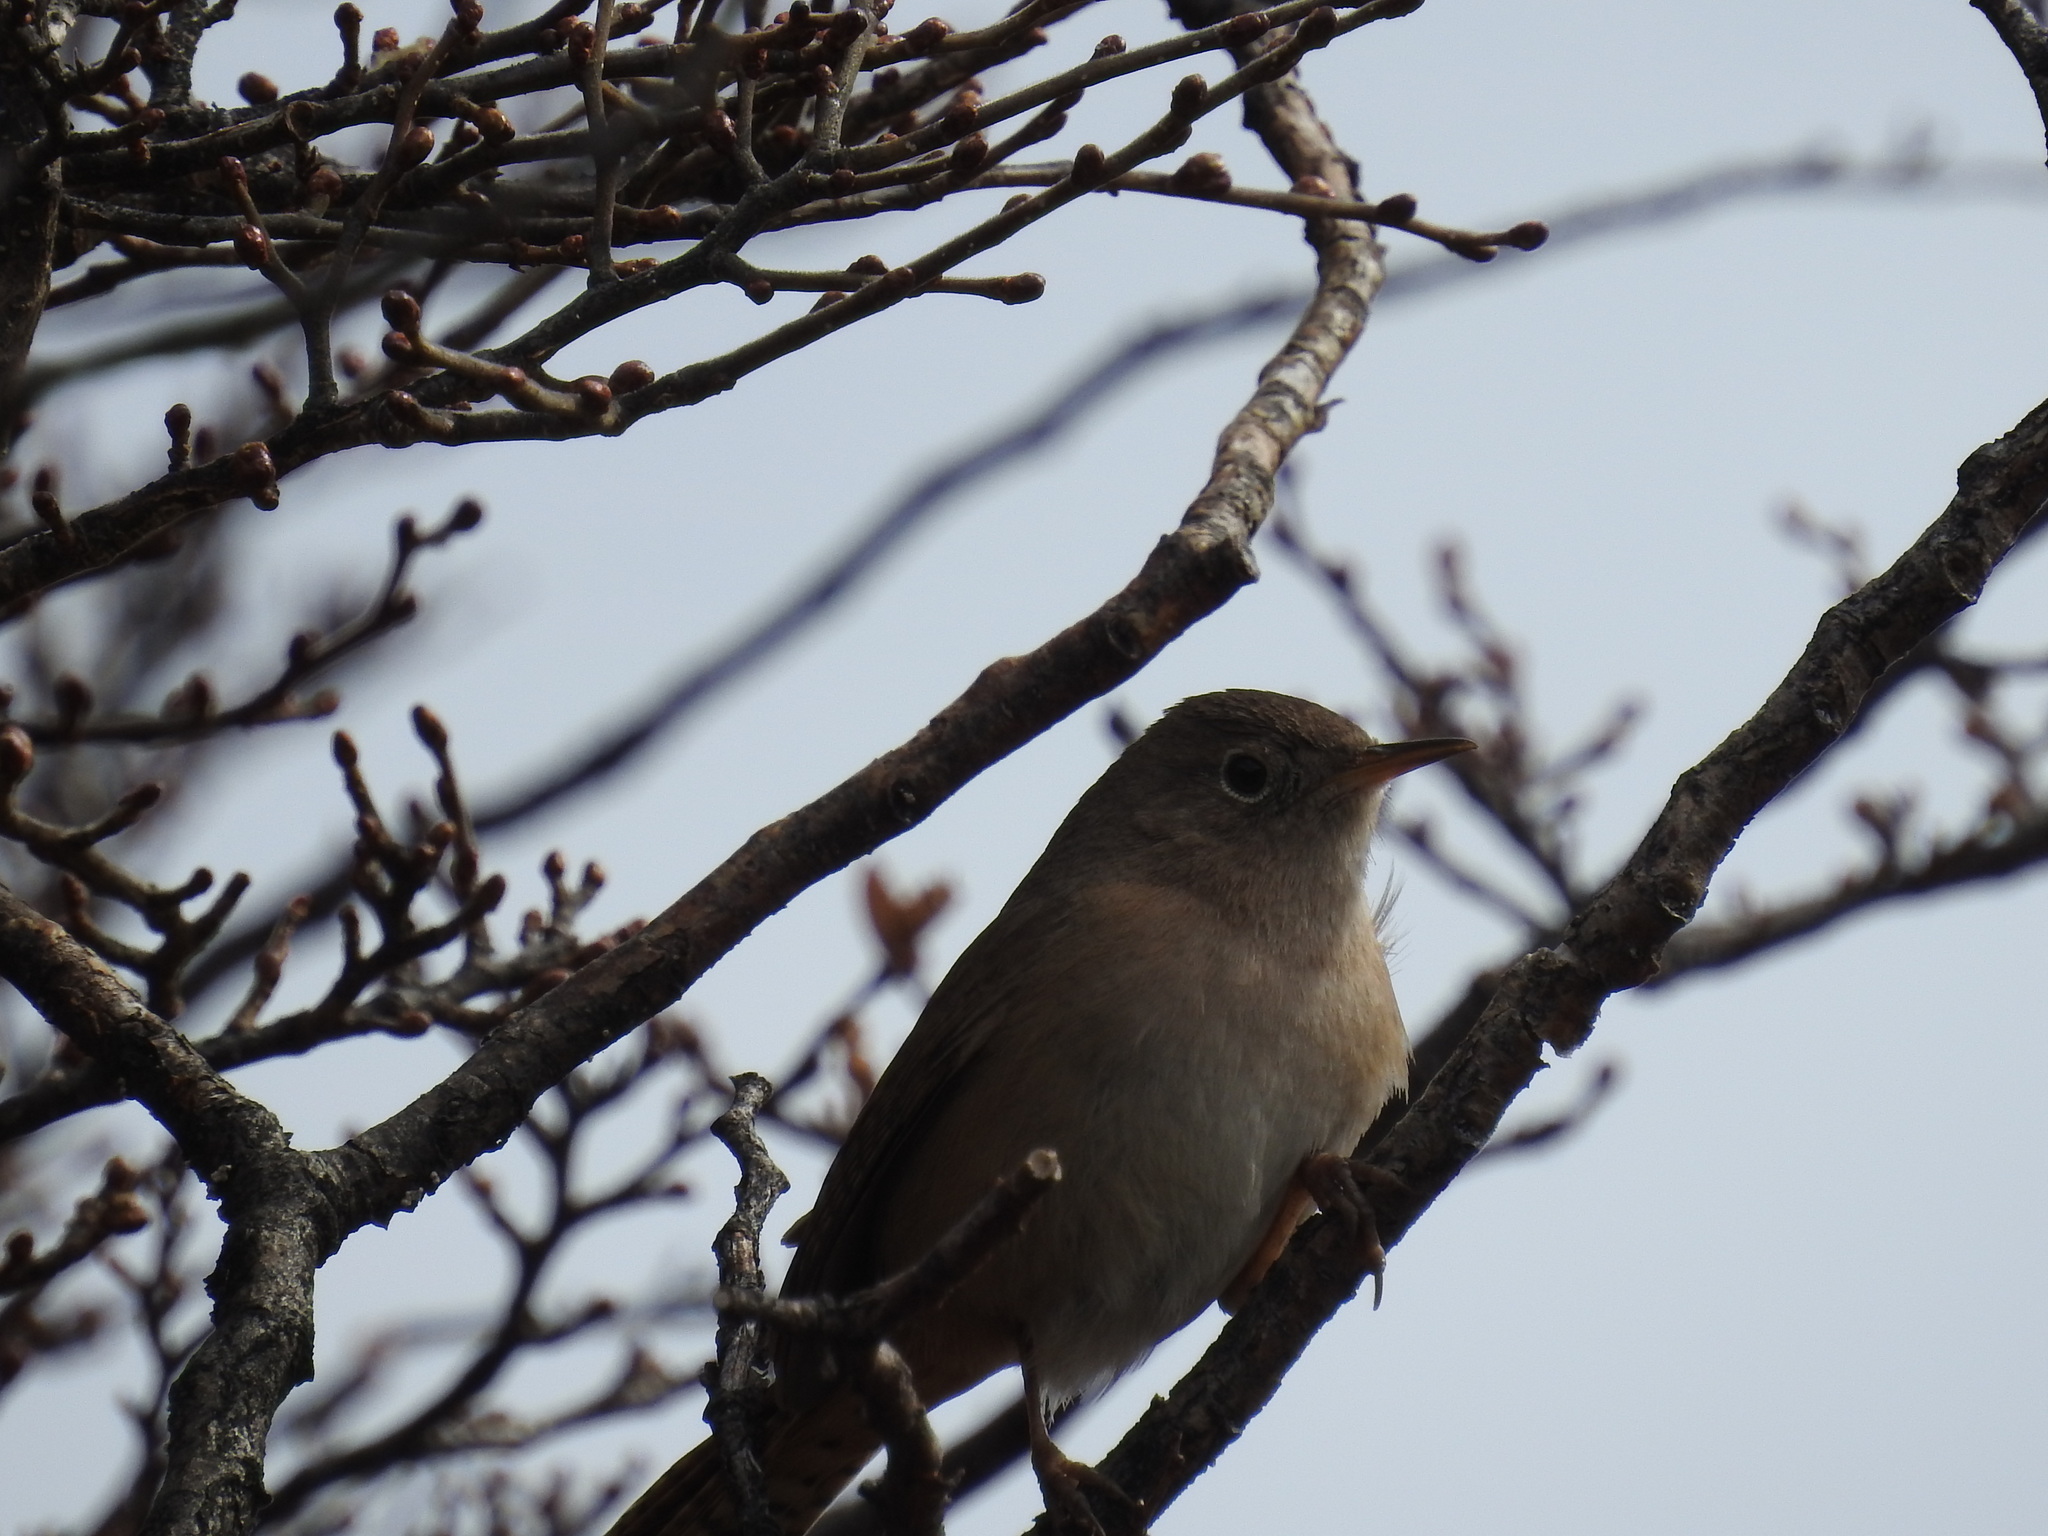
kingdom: Animalia
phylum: Chordata
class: Aves
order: Passeriformes
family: Troglodytidae
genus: Troglodytes
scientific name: Troglodytes aedon
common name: House wren
